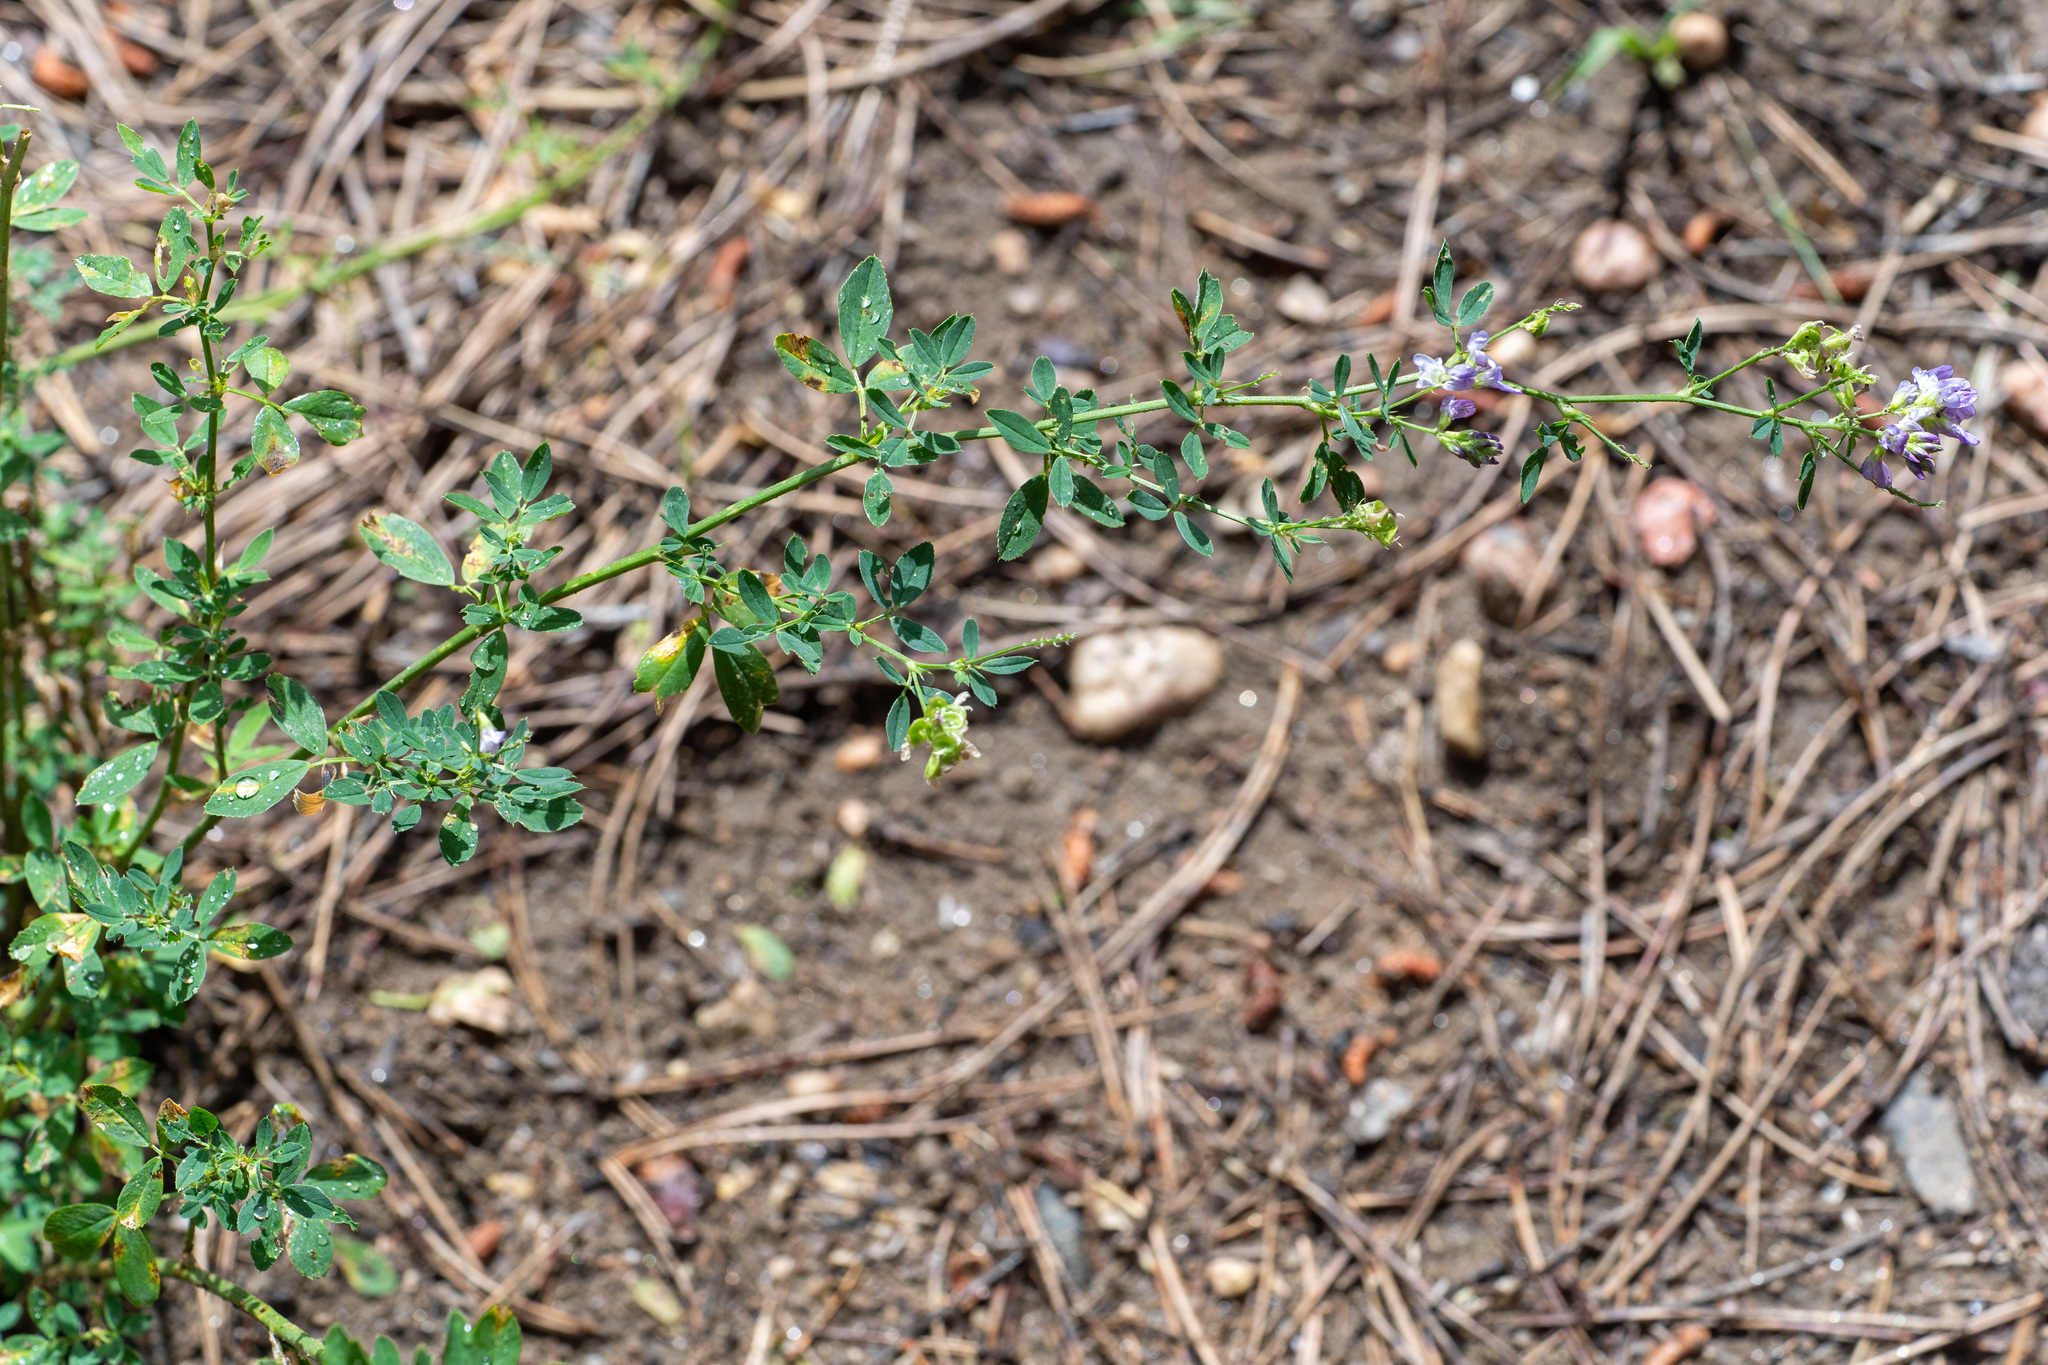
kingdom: Plantae
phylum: Tracheophyta
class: Magnoliopsida
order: Fabales
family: Fabaceae
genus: Medicago
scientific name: Medicago sativa
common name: Alfalfa
